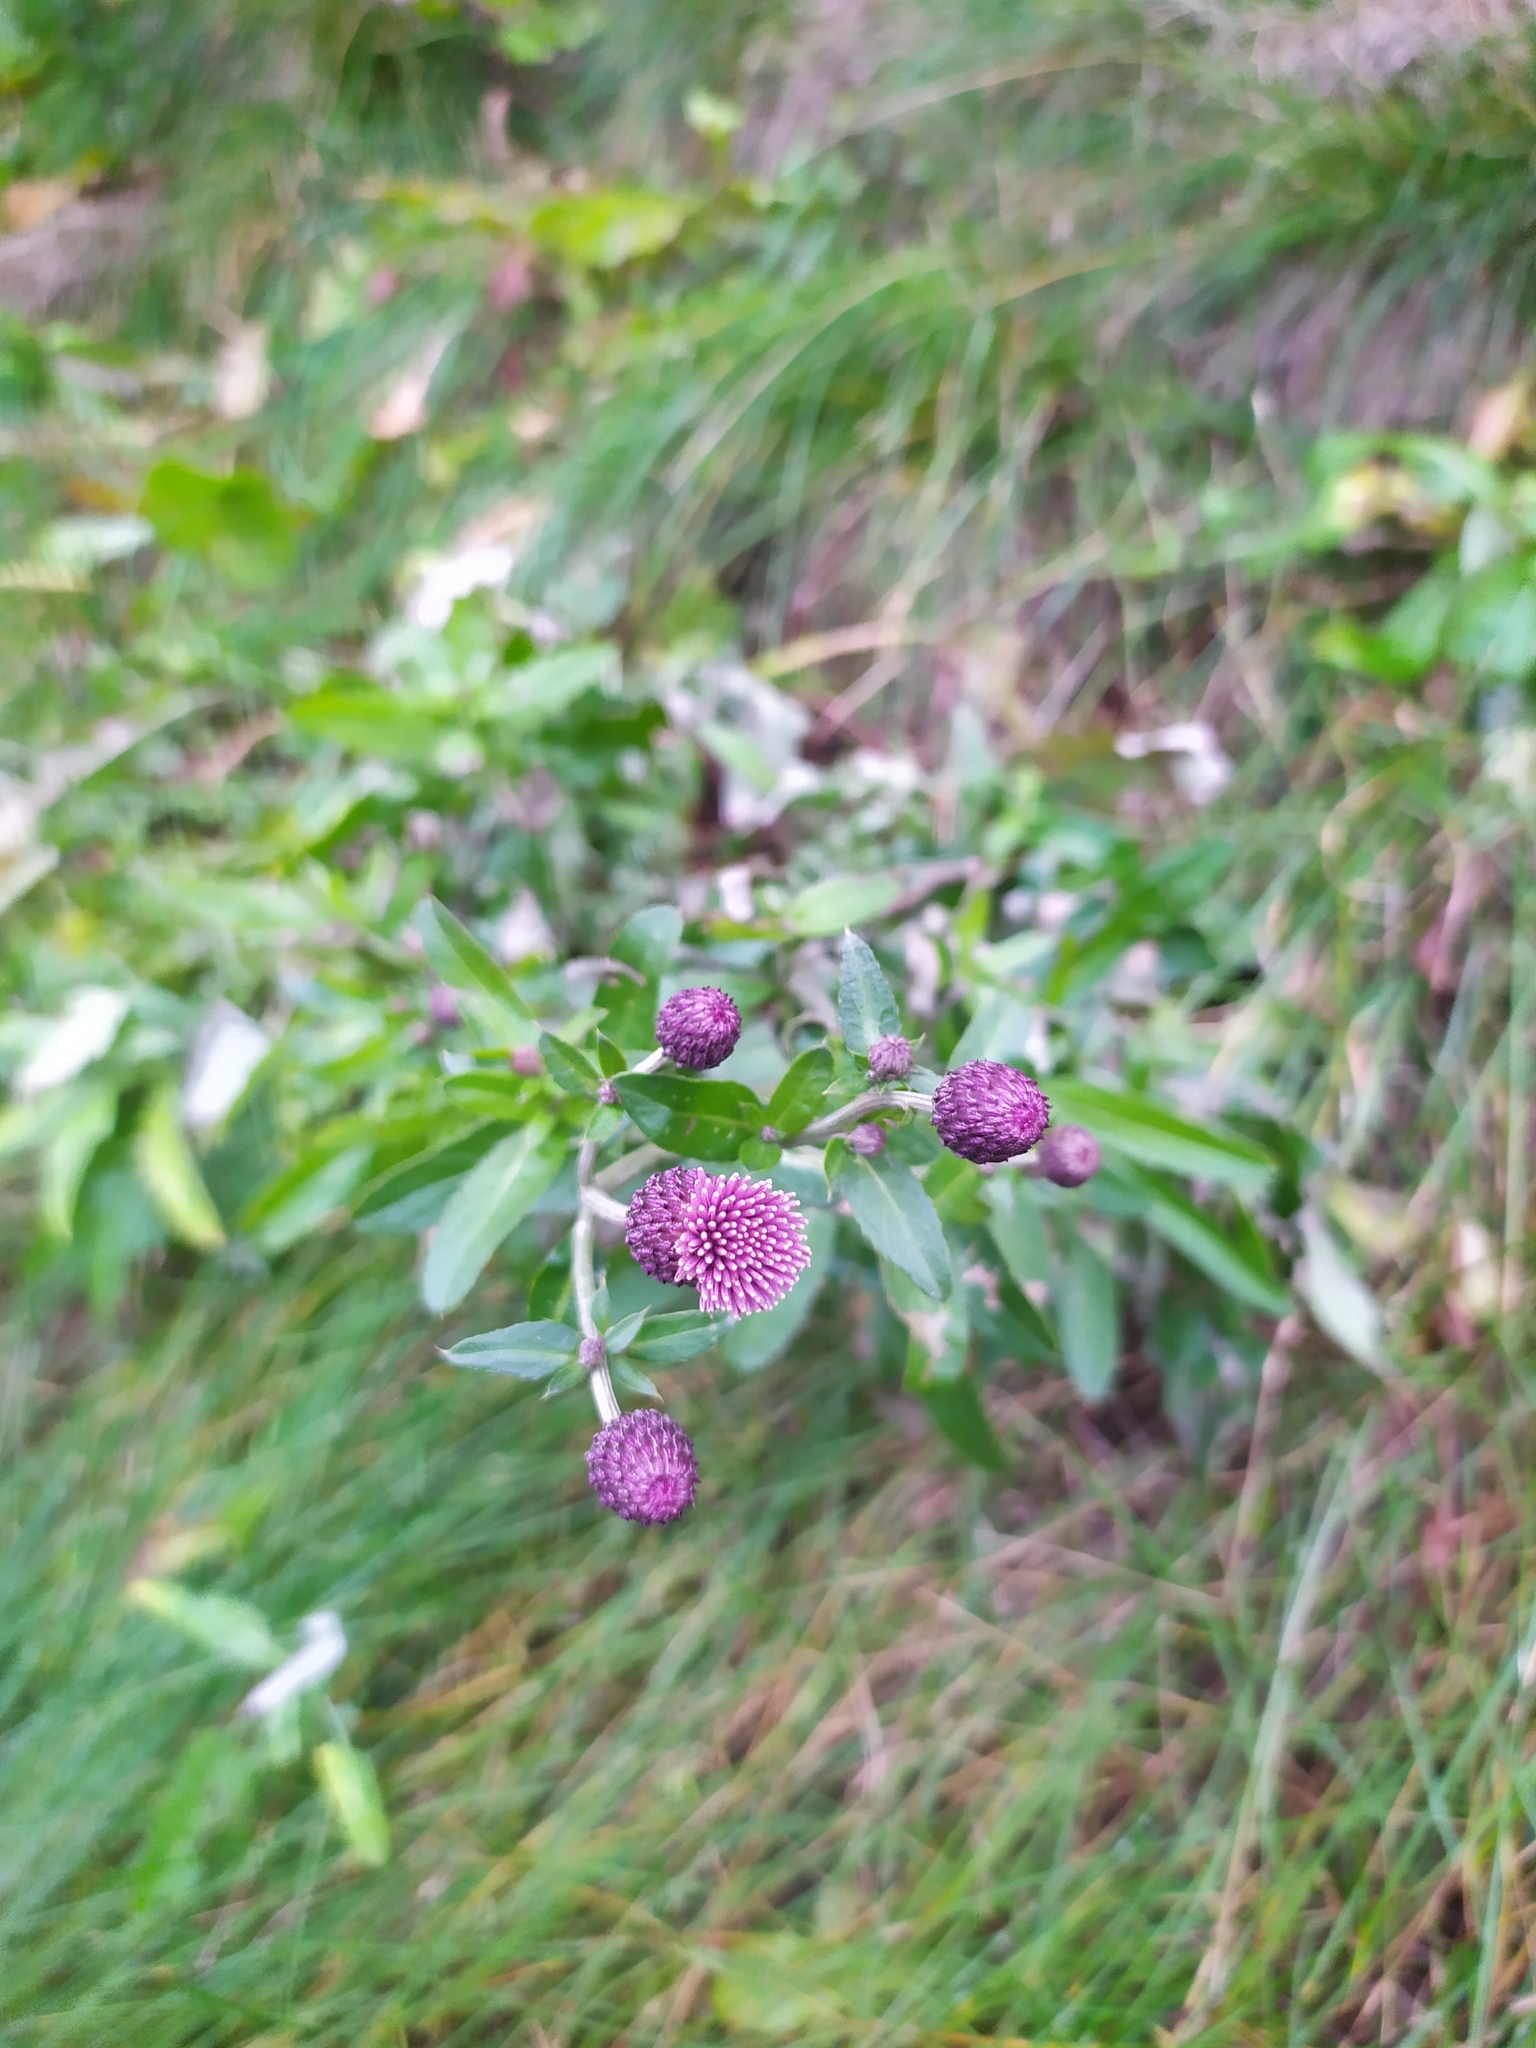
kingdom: Plantae
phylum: Tracheophyta
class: Magnoliopsida
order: Asterales
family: Asteraceae
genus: Cirsium
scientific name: Cirsium arvense
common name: Creeping thistle
